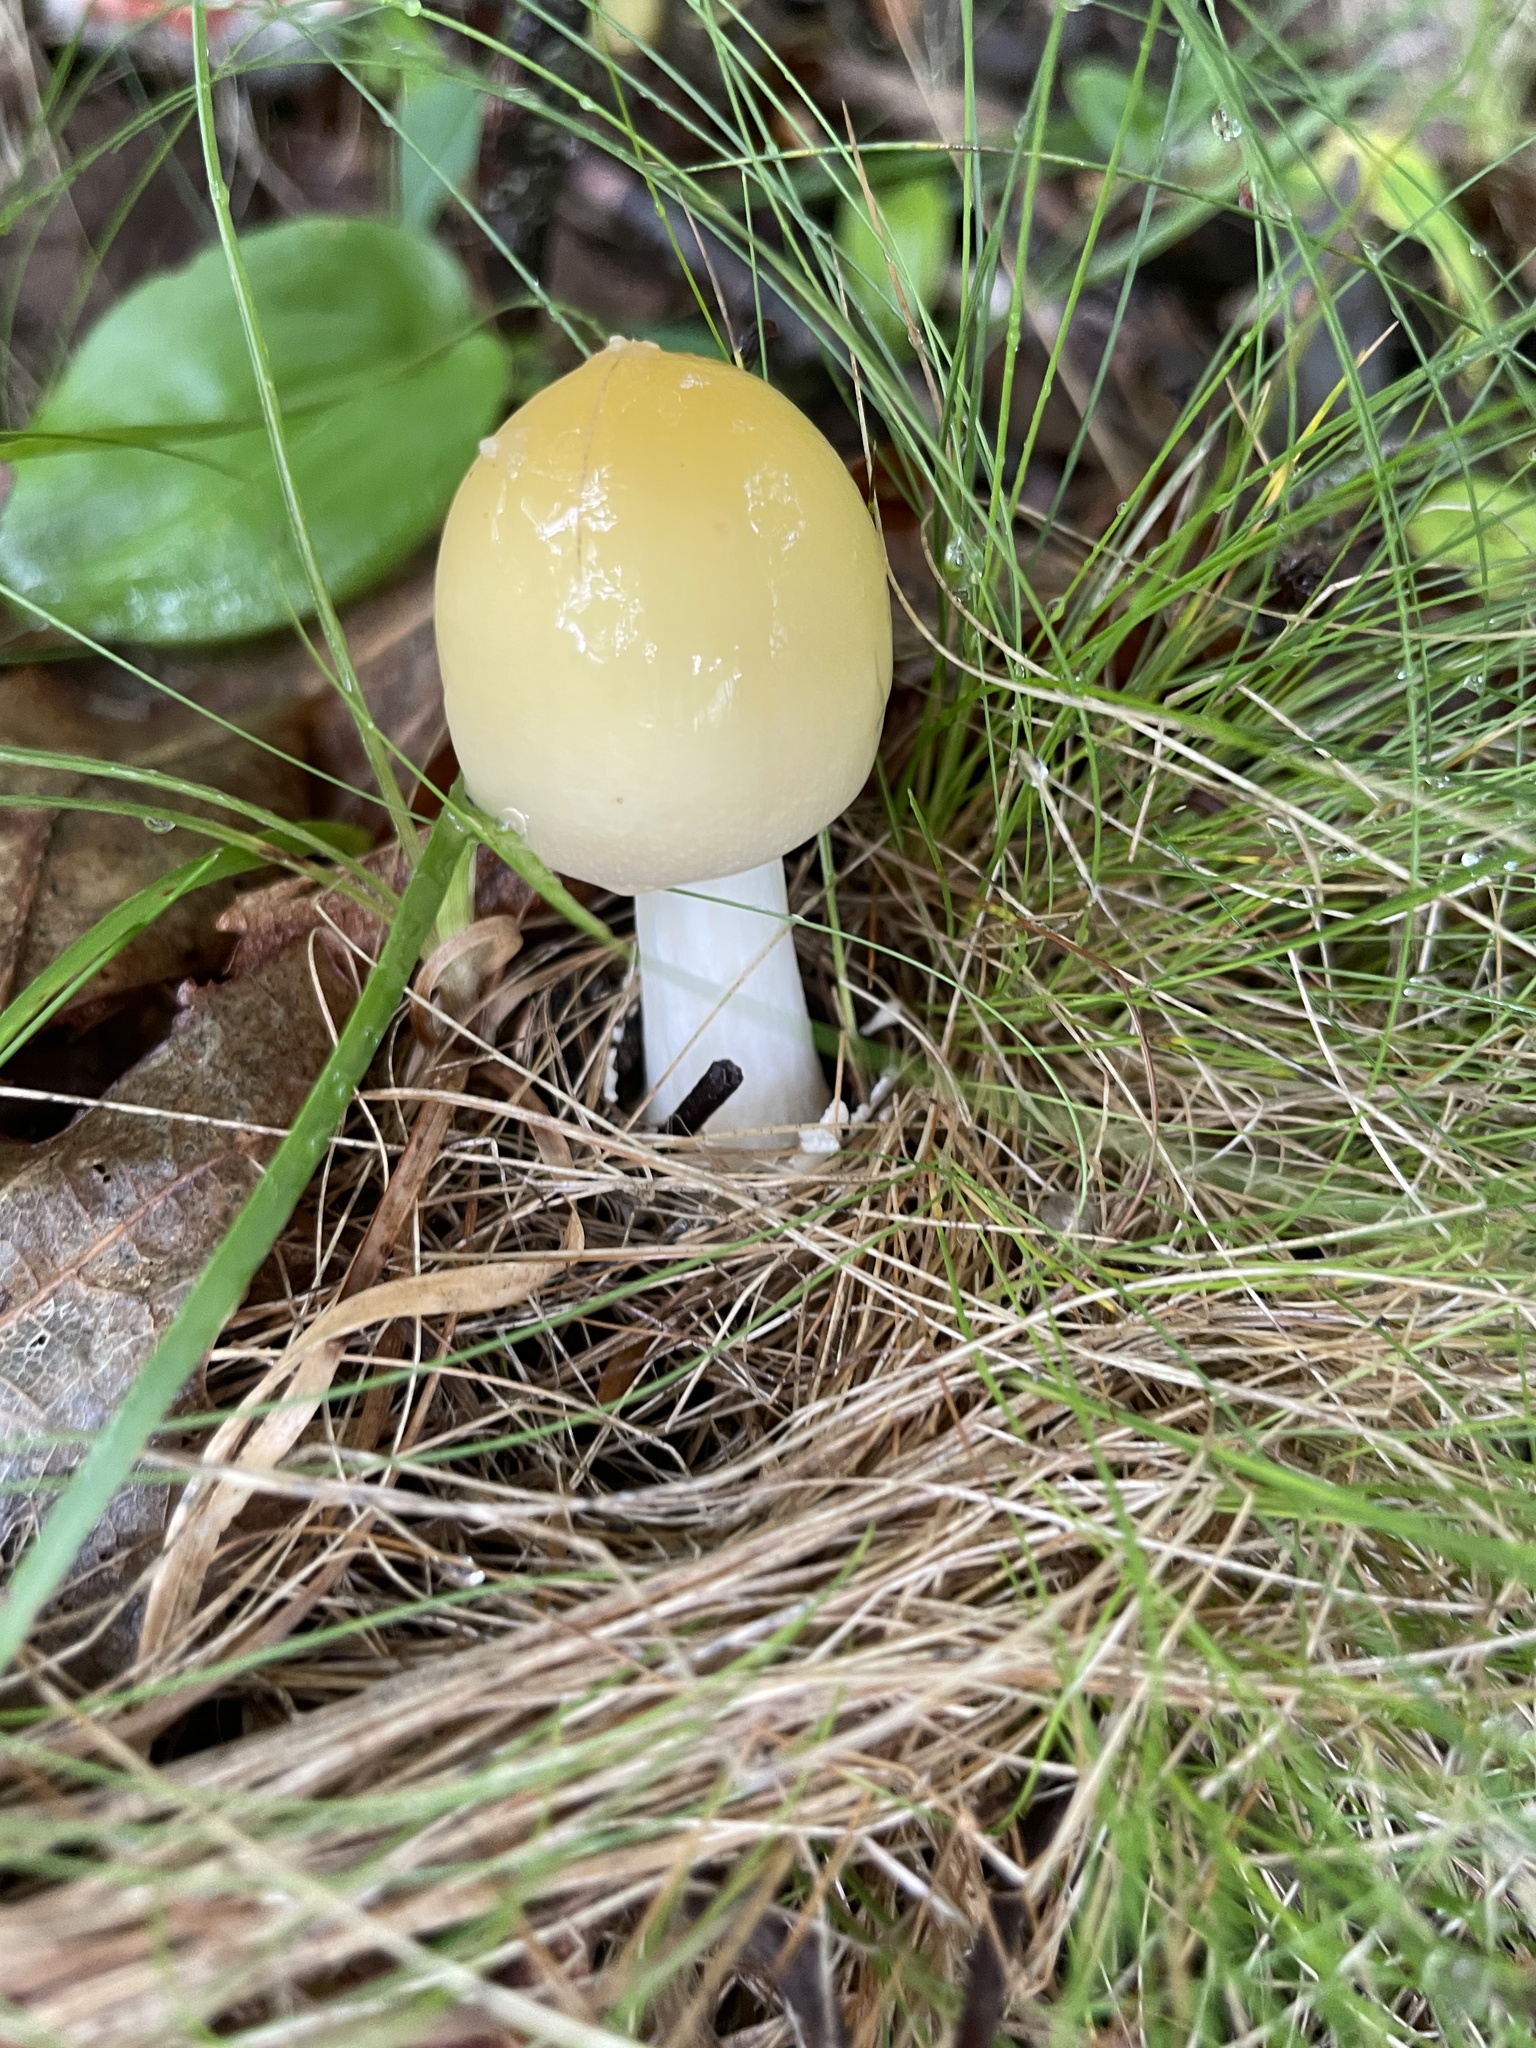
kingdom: Fungi
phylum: Basidiomycota
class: Agaricomycetes
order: Agaricales
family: Amanitaceae
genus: Amanita
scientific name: Amanita flavorubens
